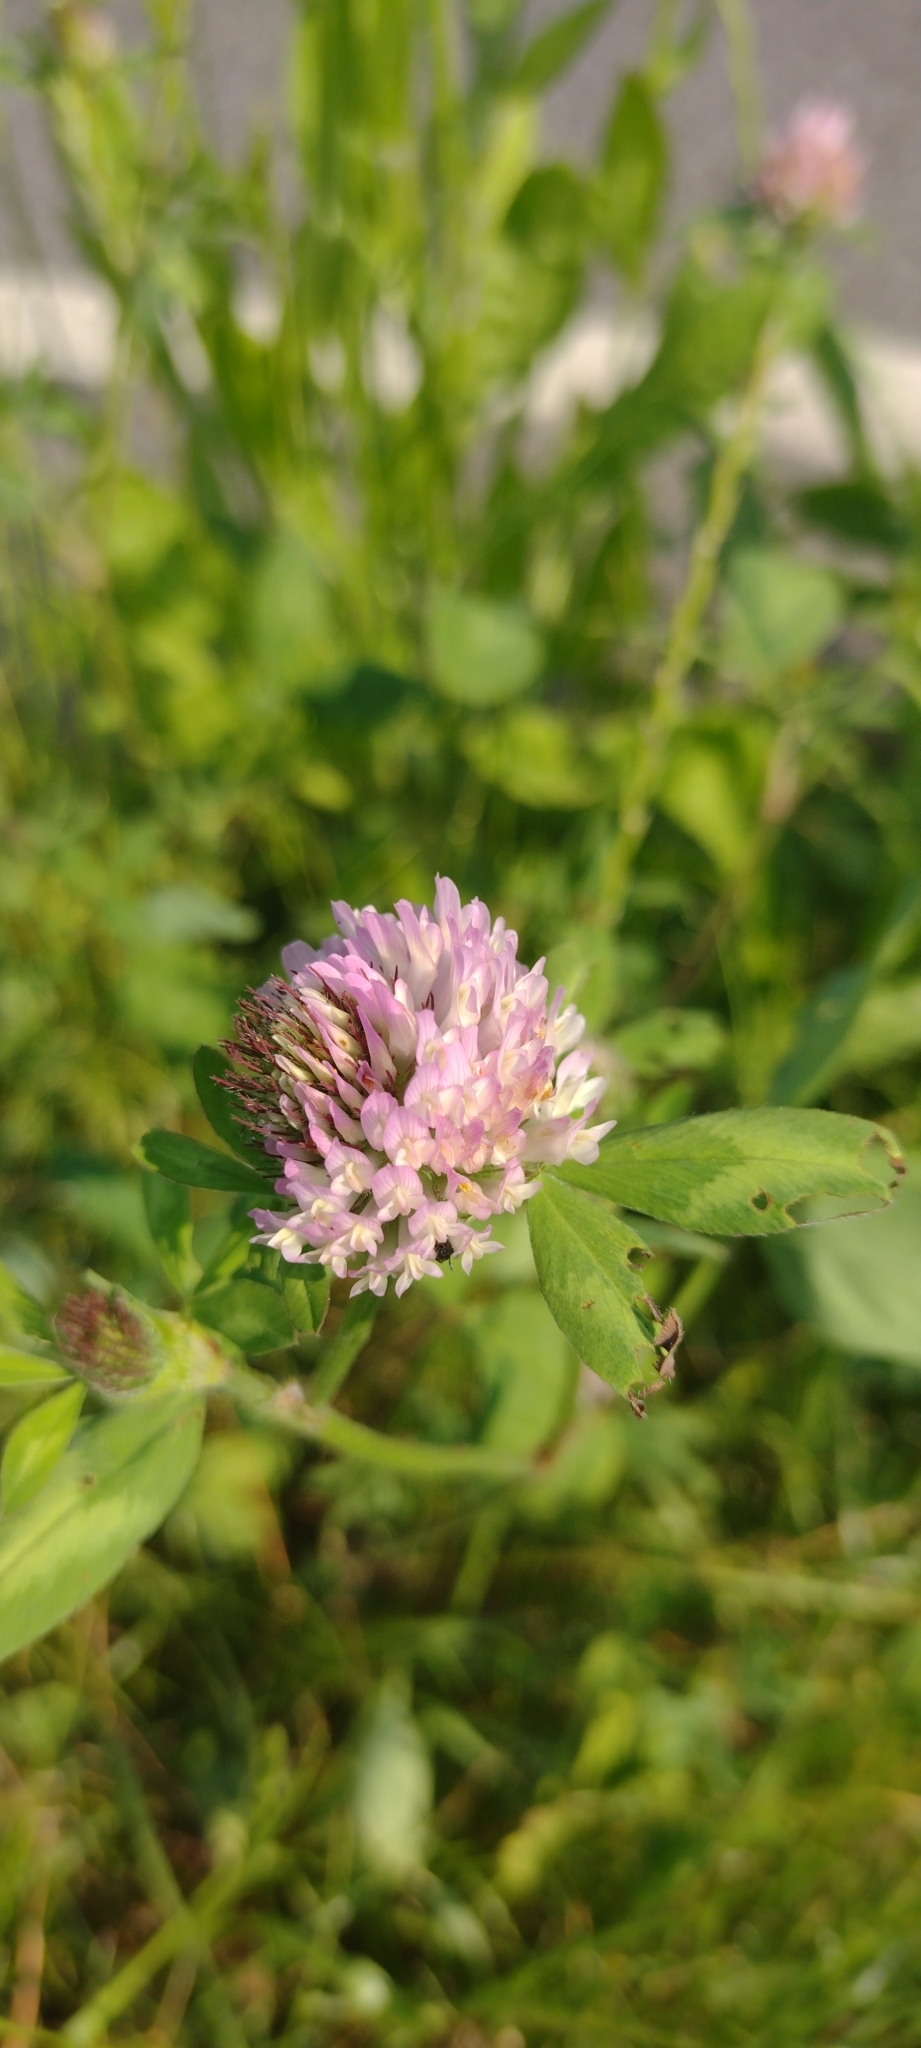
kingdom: Plantae
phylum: Tracheophyta
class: Magnoliopsida
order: Fabales
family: Fabaceae
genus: Trifolium
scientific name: Trifolium pratense
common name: Red clover
